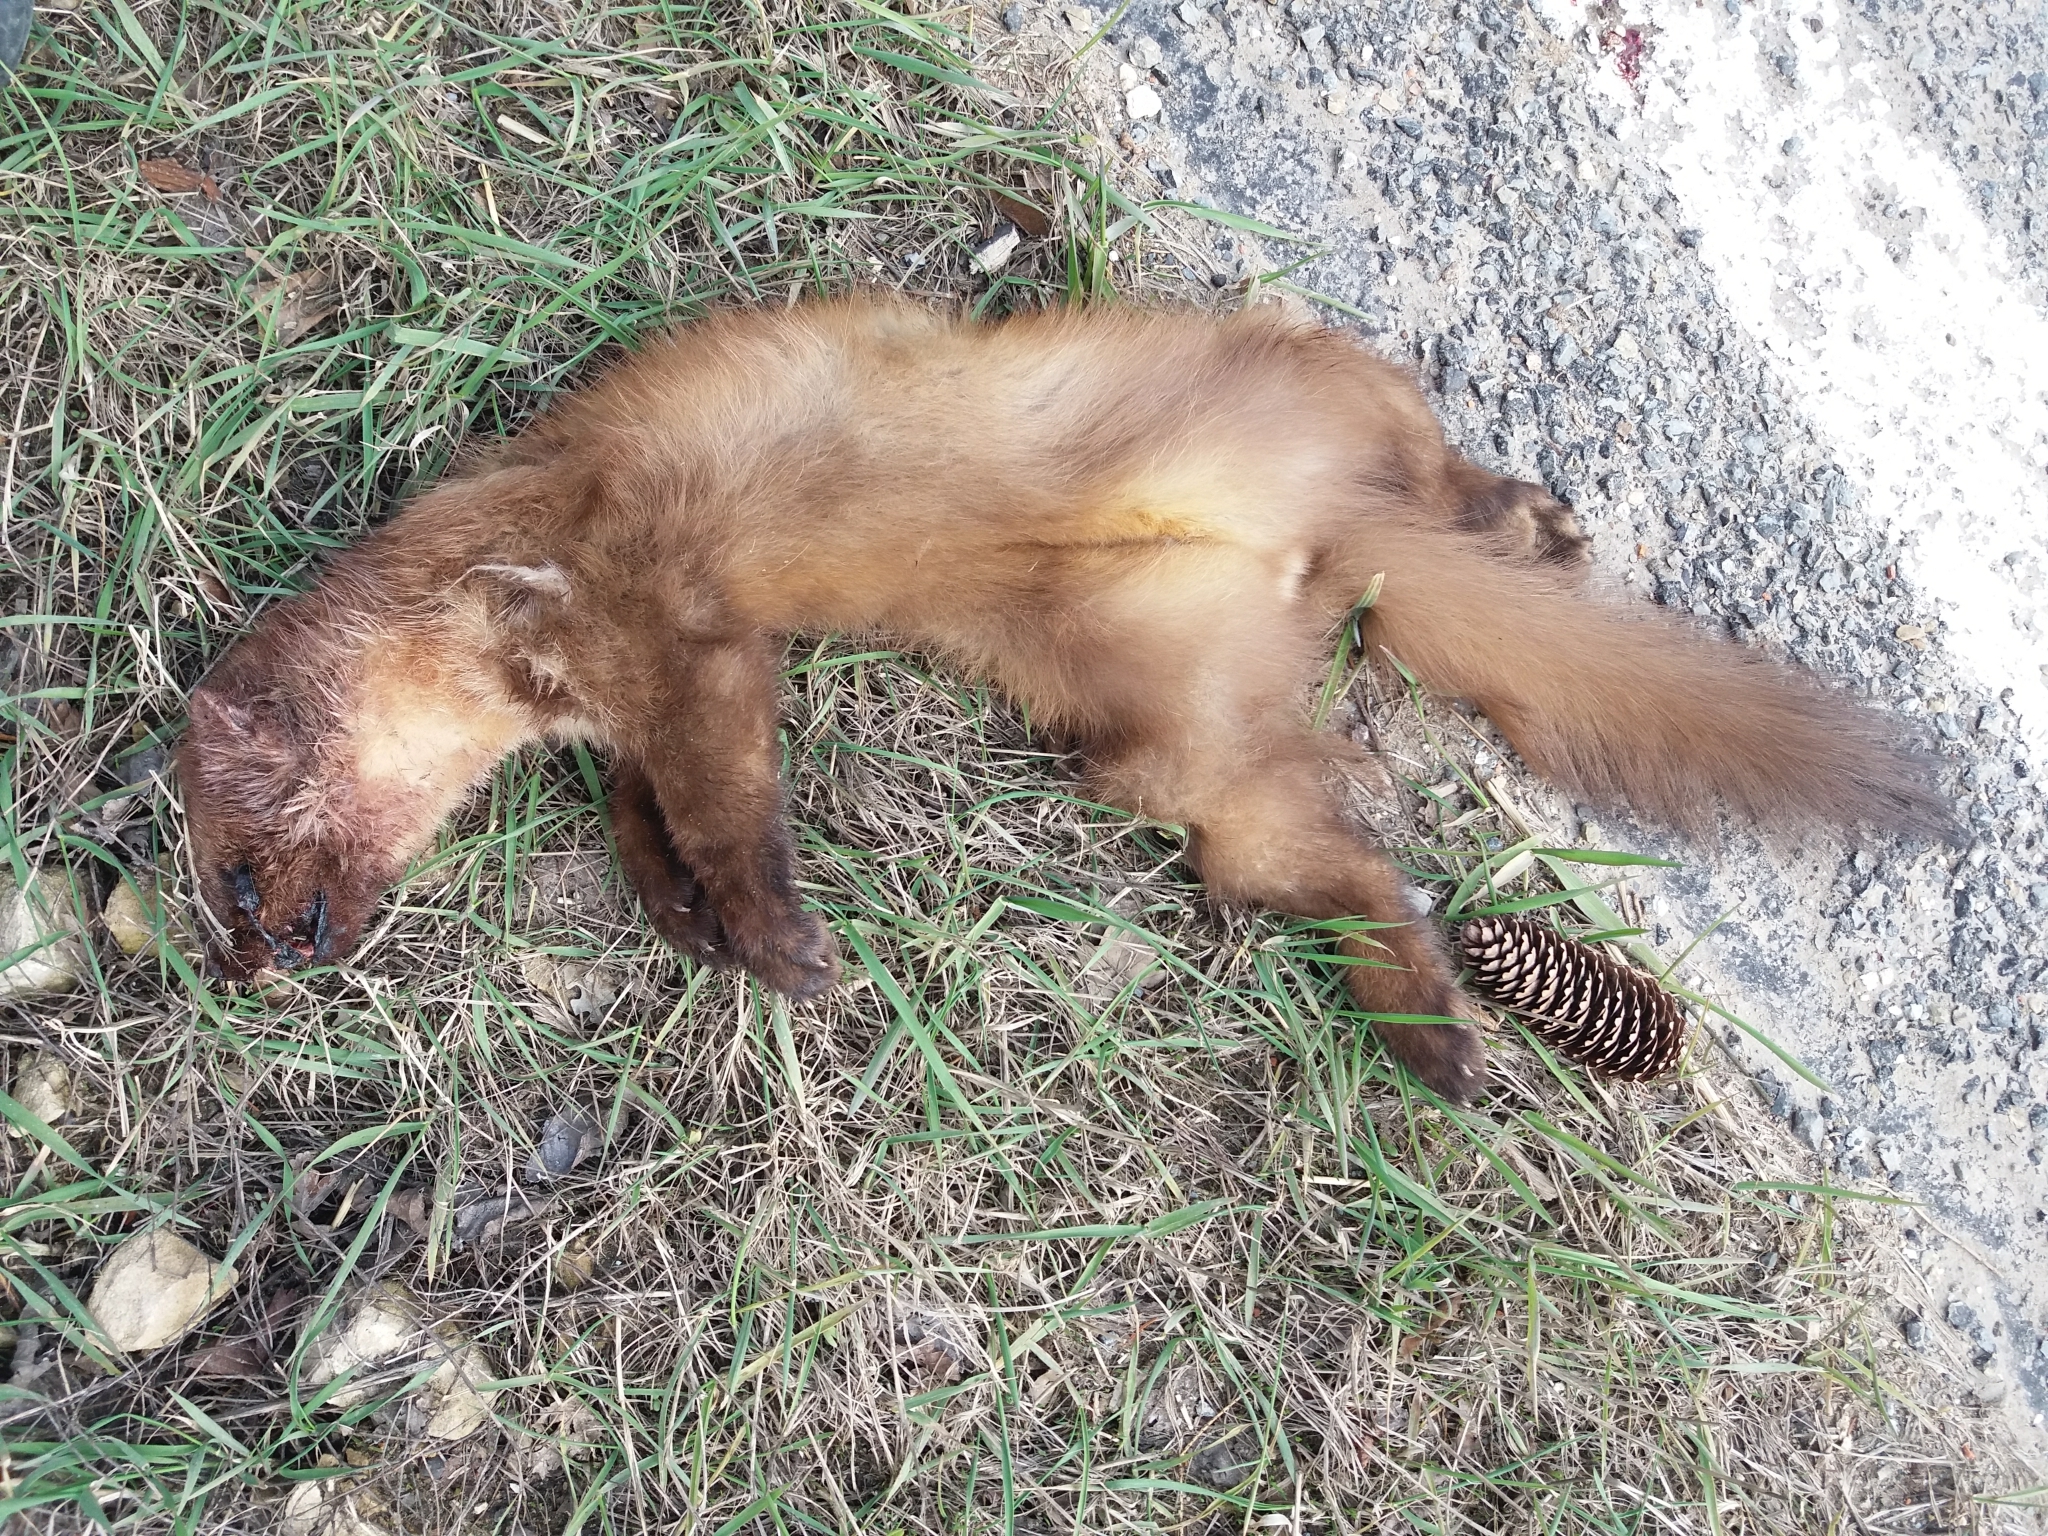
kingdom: Animalia
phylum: Chordata
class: Mammalia
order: Carnivora
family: Mustelidae
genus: Martes
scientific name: Martes martes
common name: European pine marten
